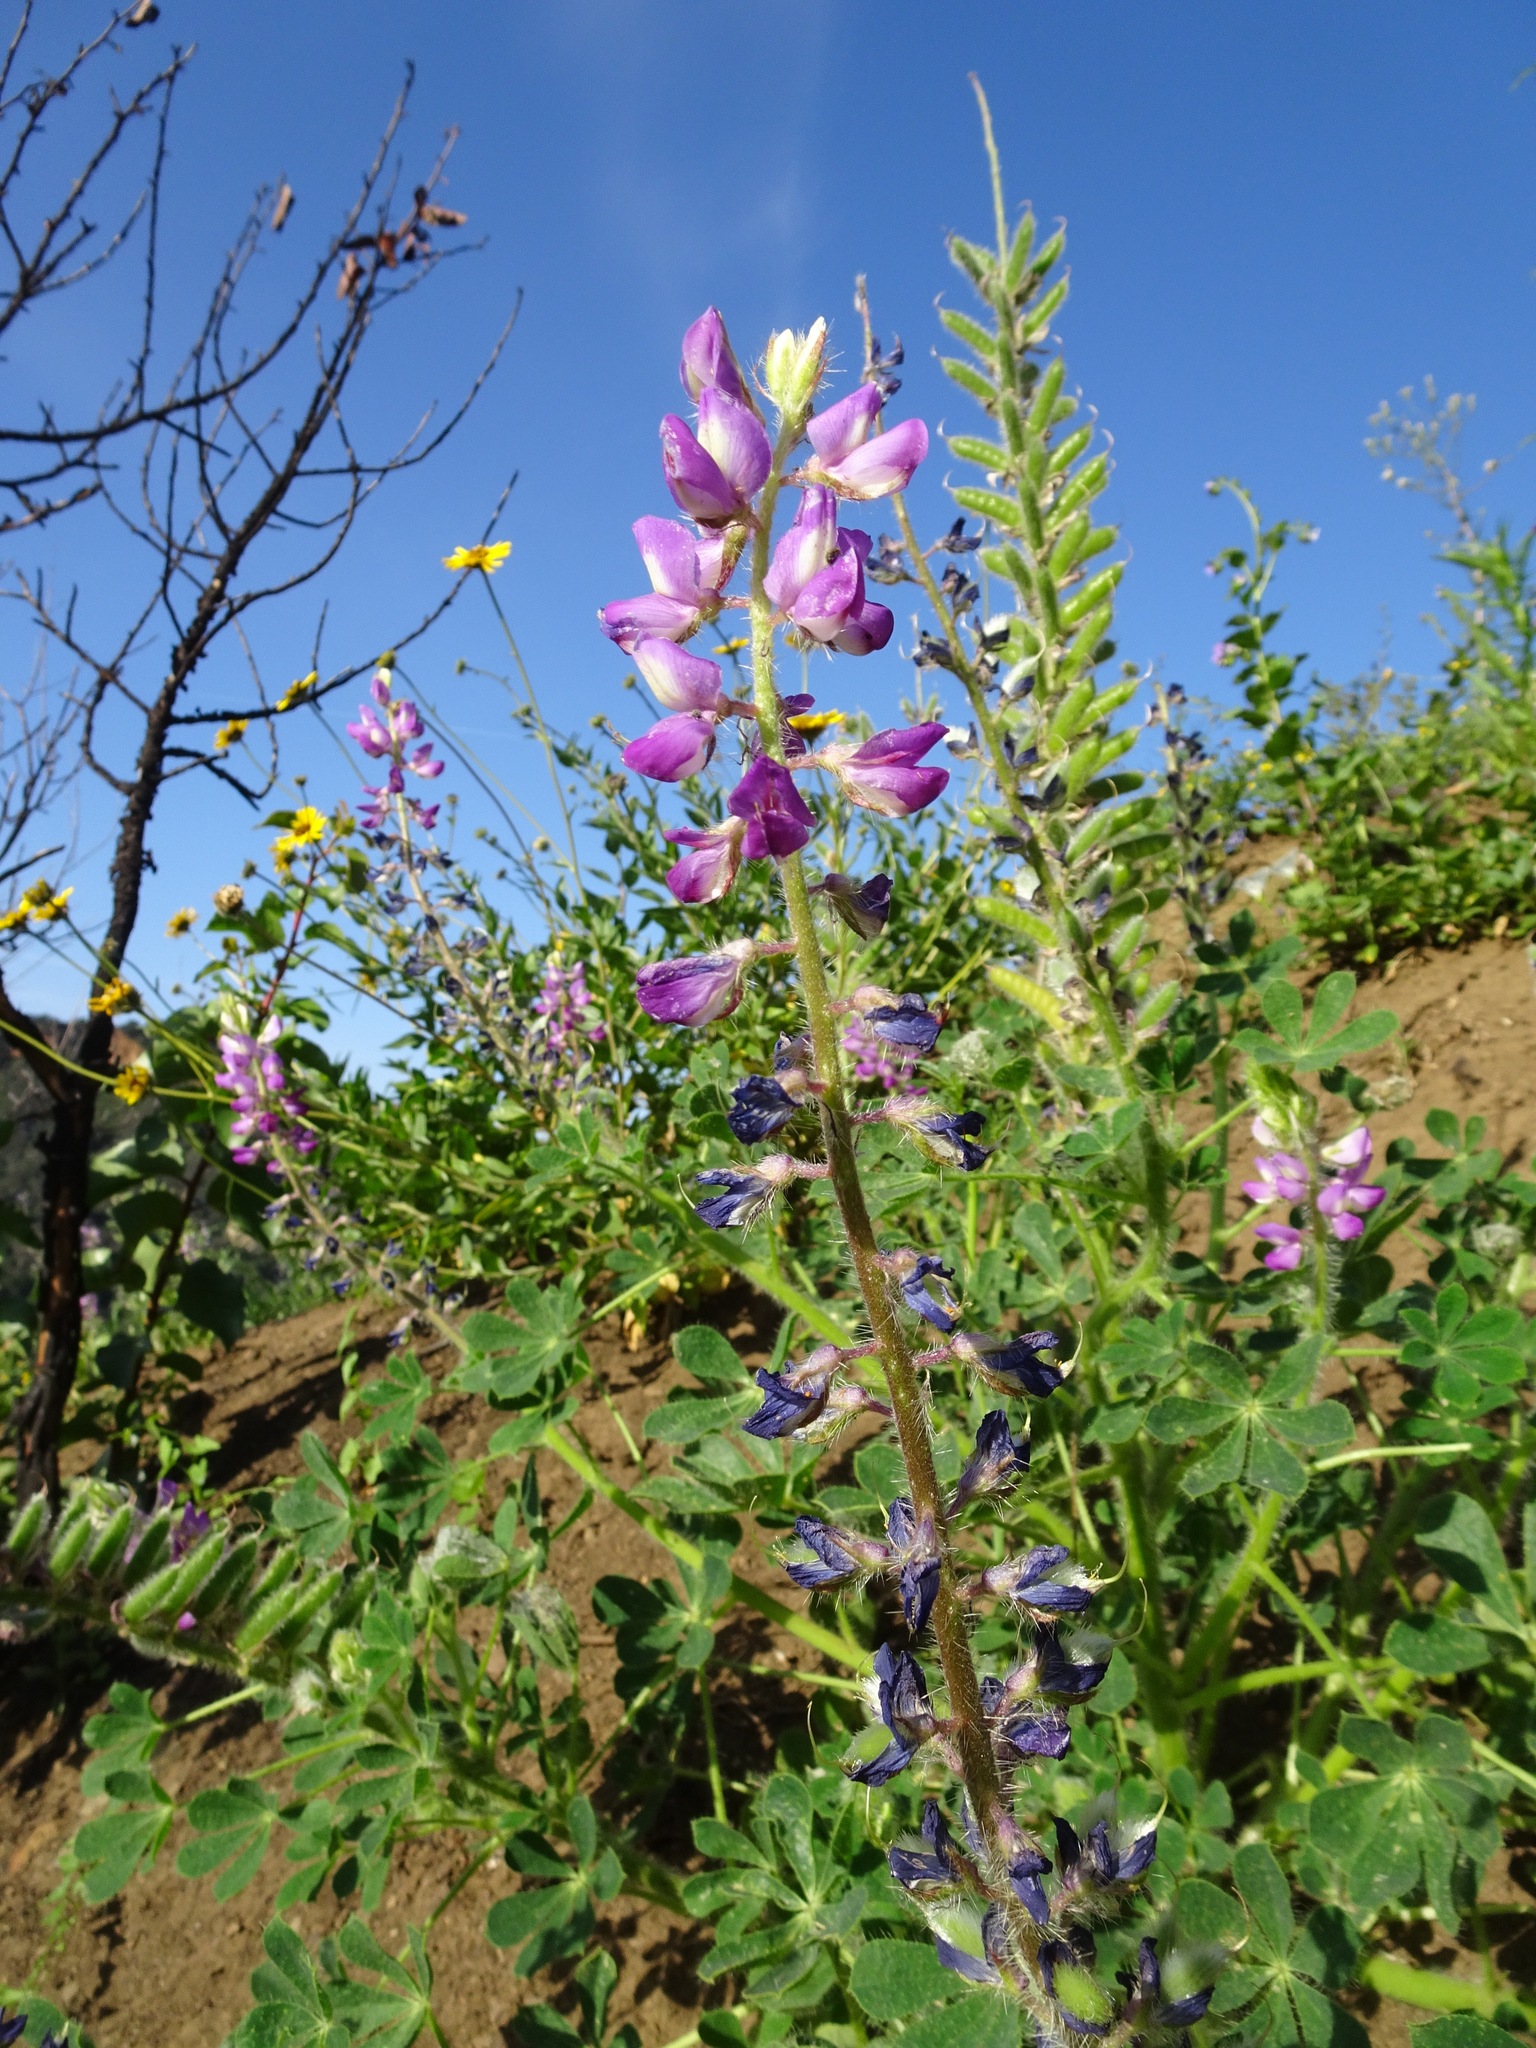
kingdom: Plantae
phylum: Tracheophyta
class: Magnoliopsida
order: Fabales
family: Fabaceae
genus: Lupinus
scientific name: Lupinus hirsutissimus
